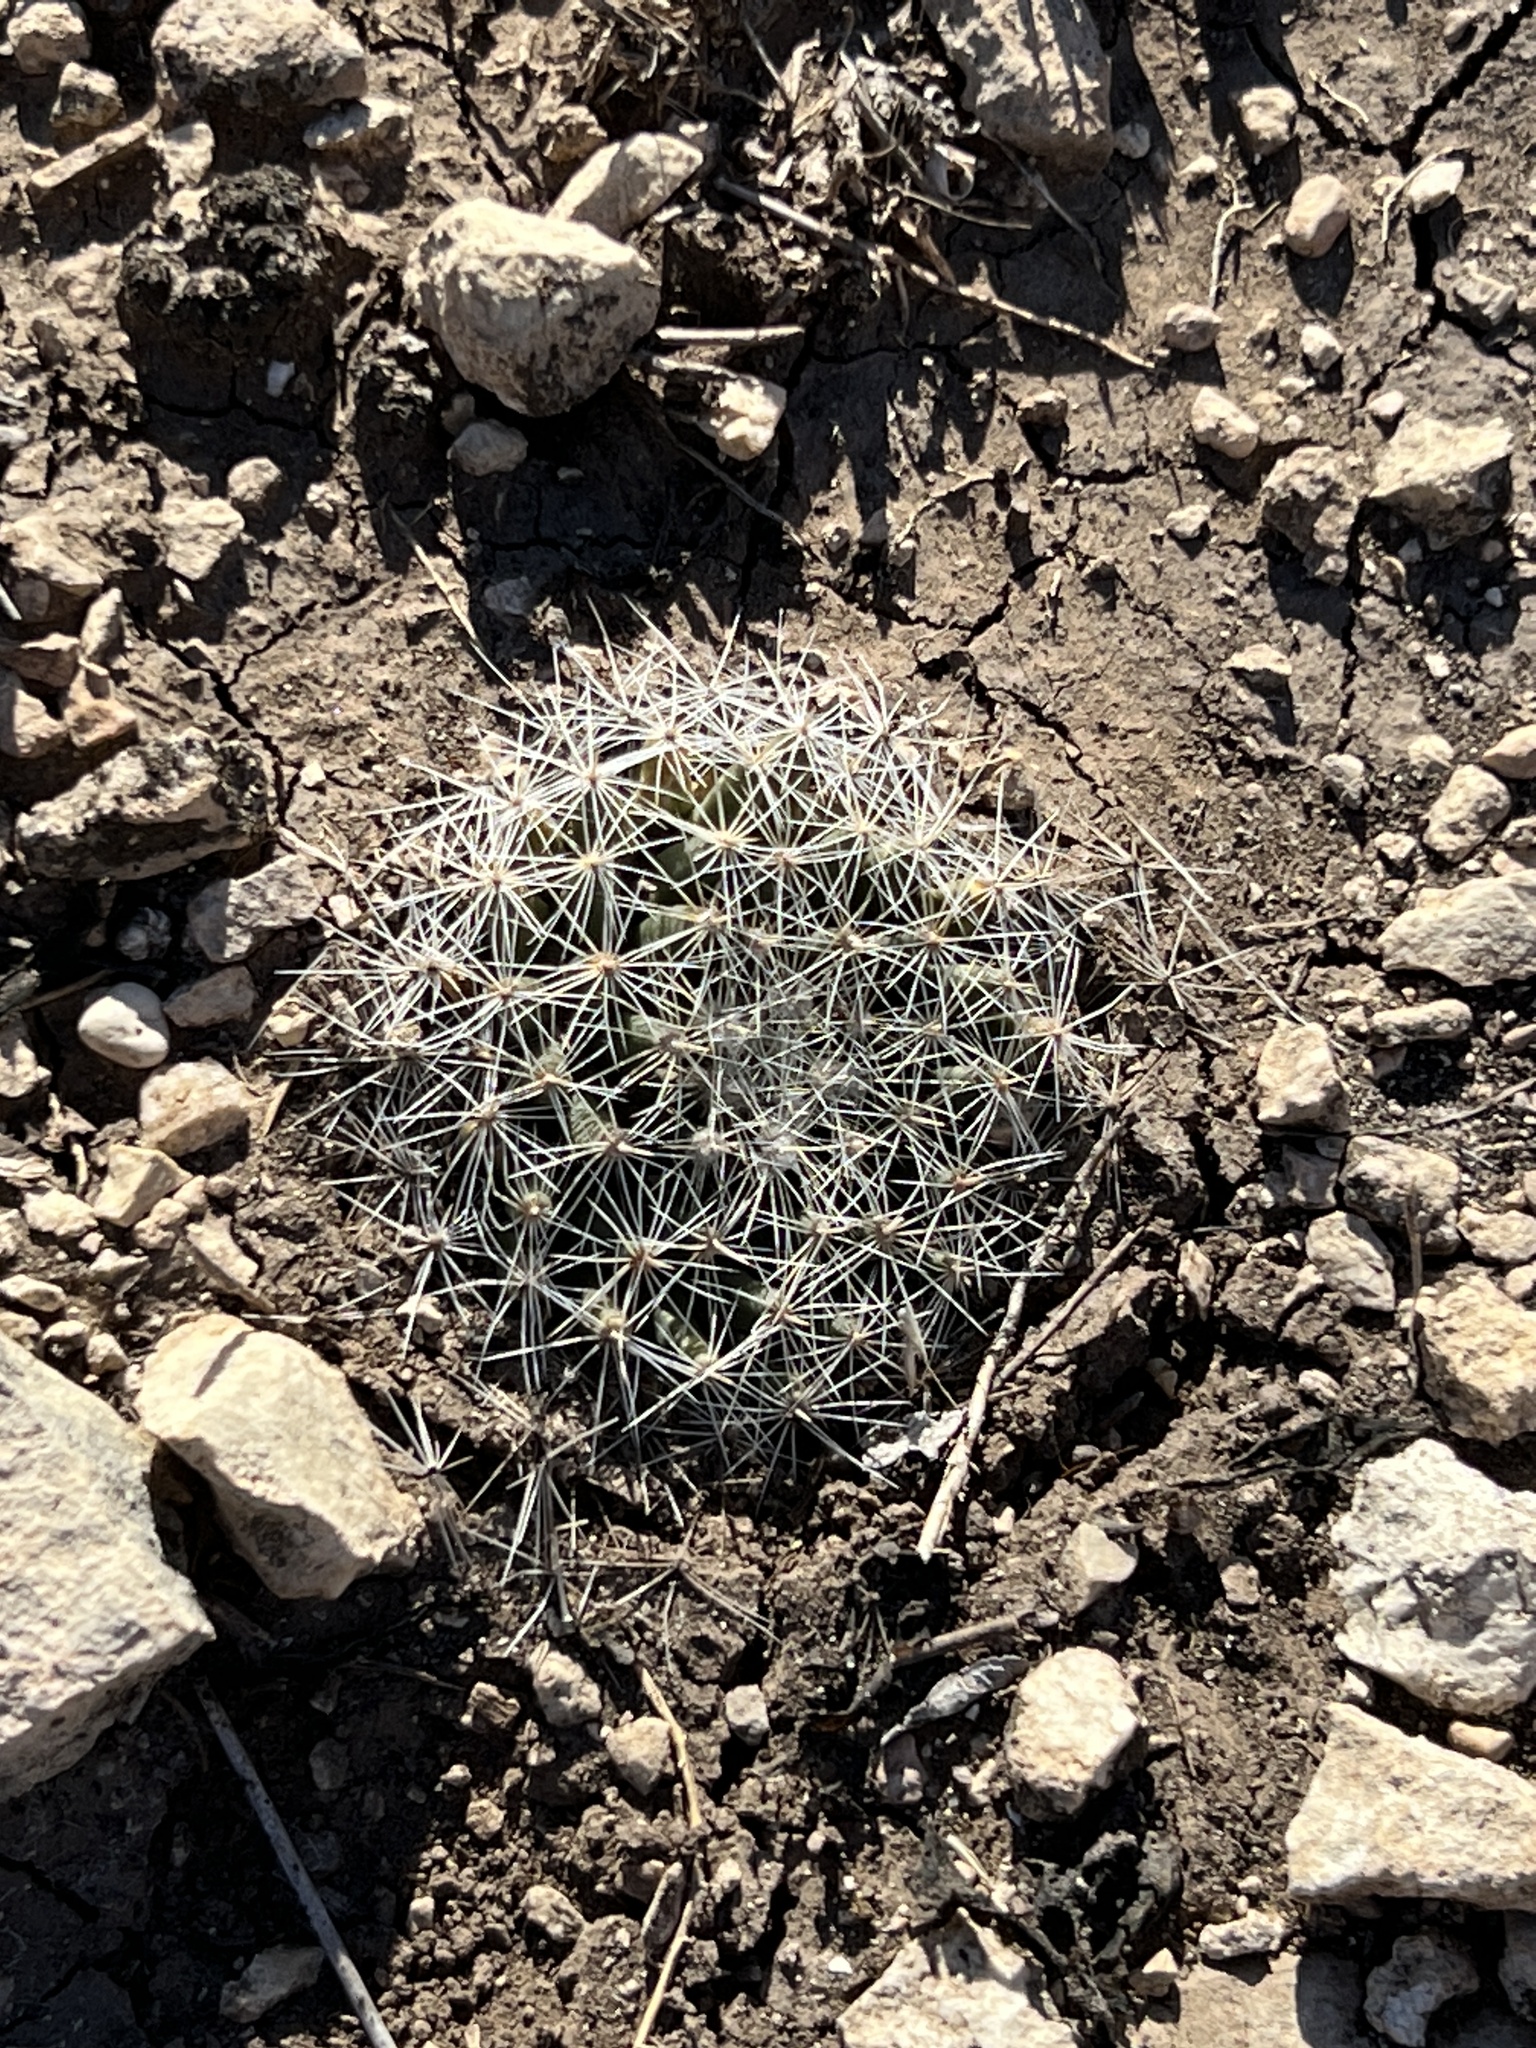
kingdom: Plantae
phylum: Tracheophyta
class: Magnoliopsida
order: Caryophyllales
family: Cactaceae
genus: Mammillaria
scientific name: Mammillaria heyderi
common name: Little nipple cactus
